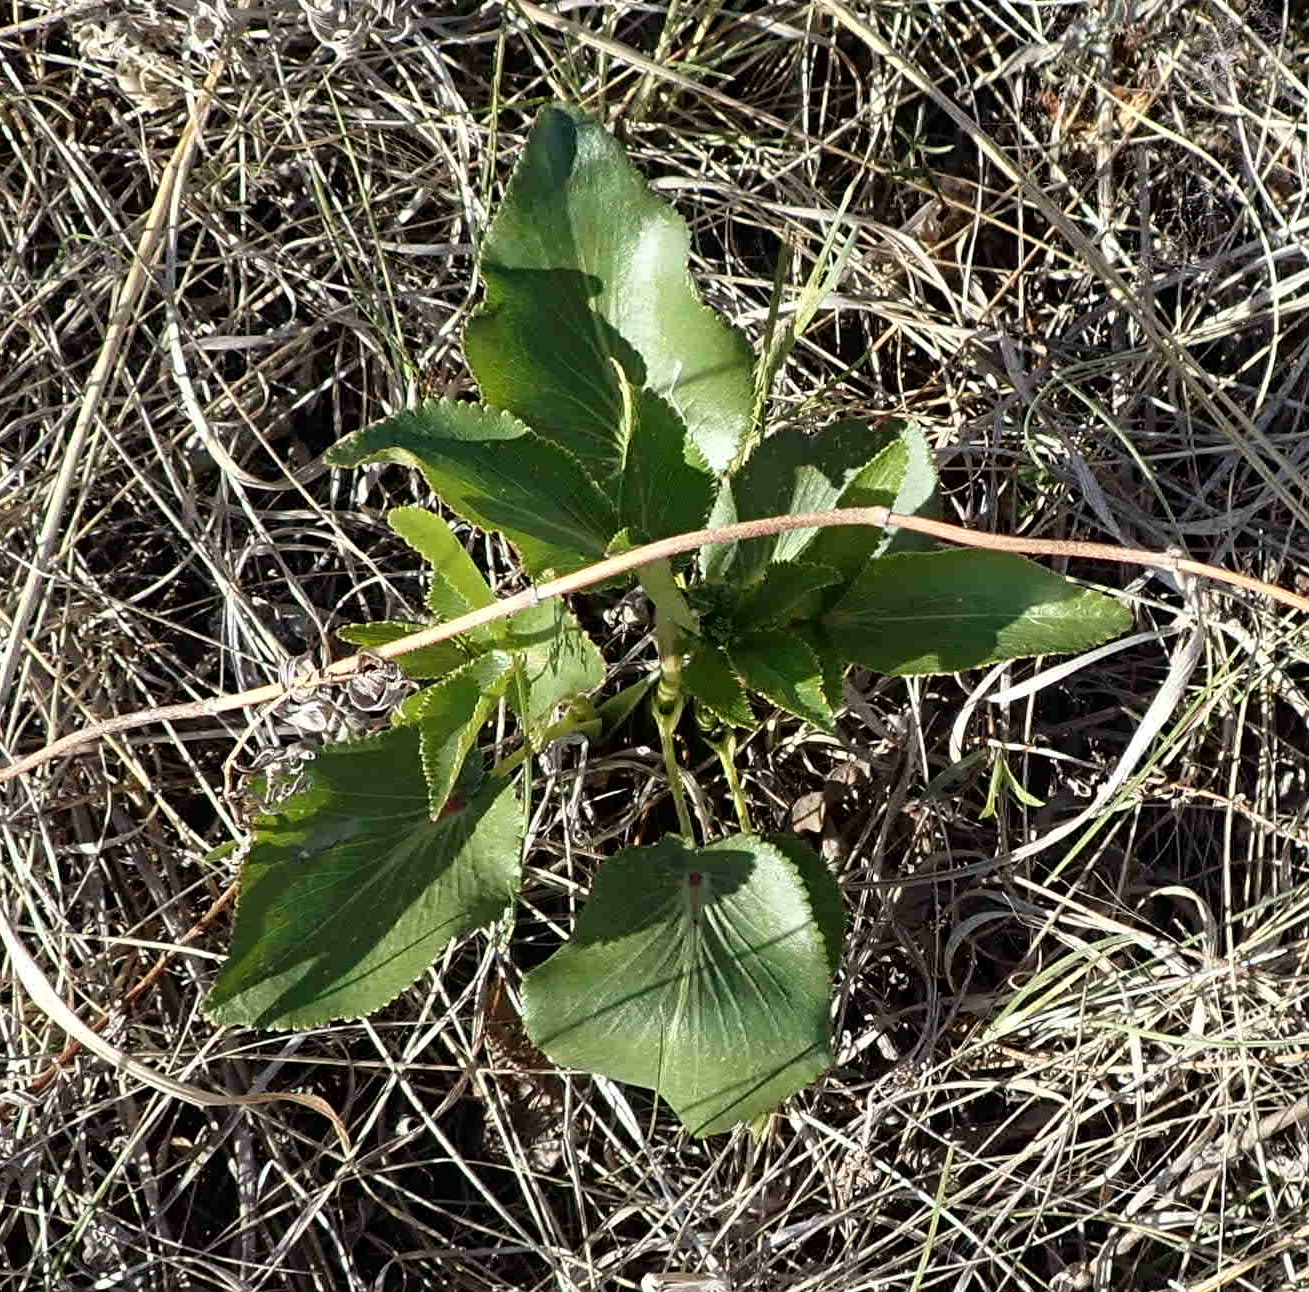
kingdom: Plantae
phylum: Tracheophyta
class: Magnoliopsida
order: Apiales
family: Apiaceae
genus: Zizia
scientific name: Zizia aptera
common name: Heart-leaved alexanders
